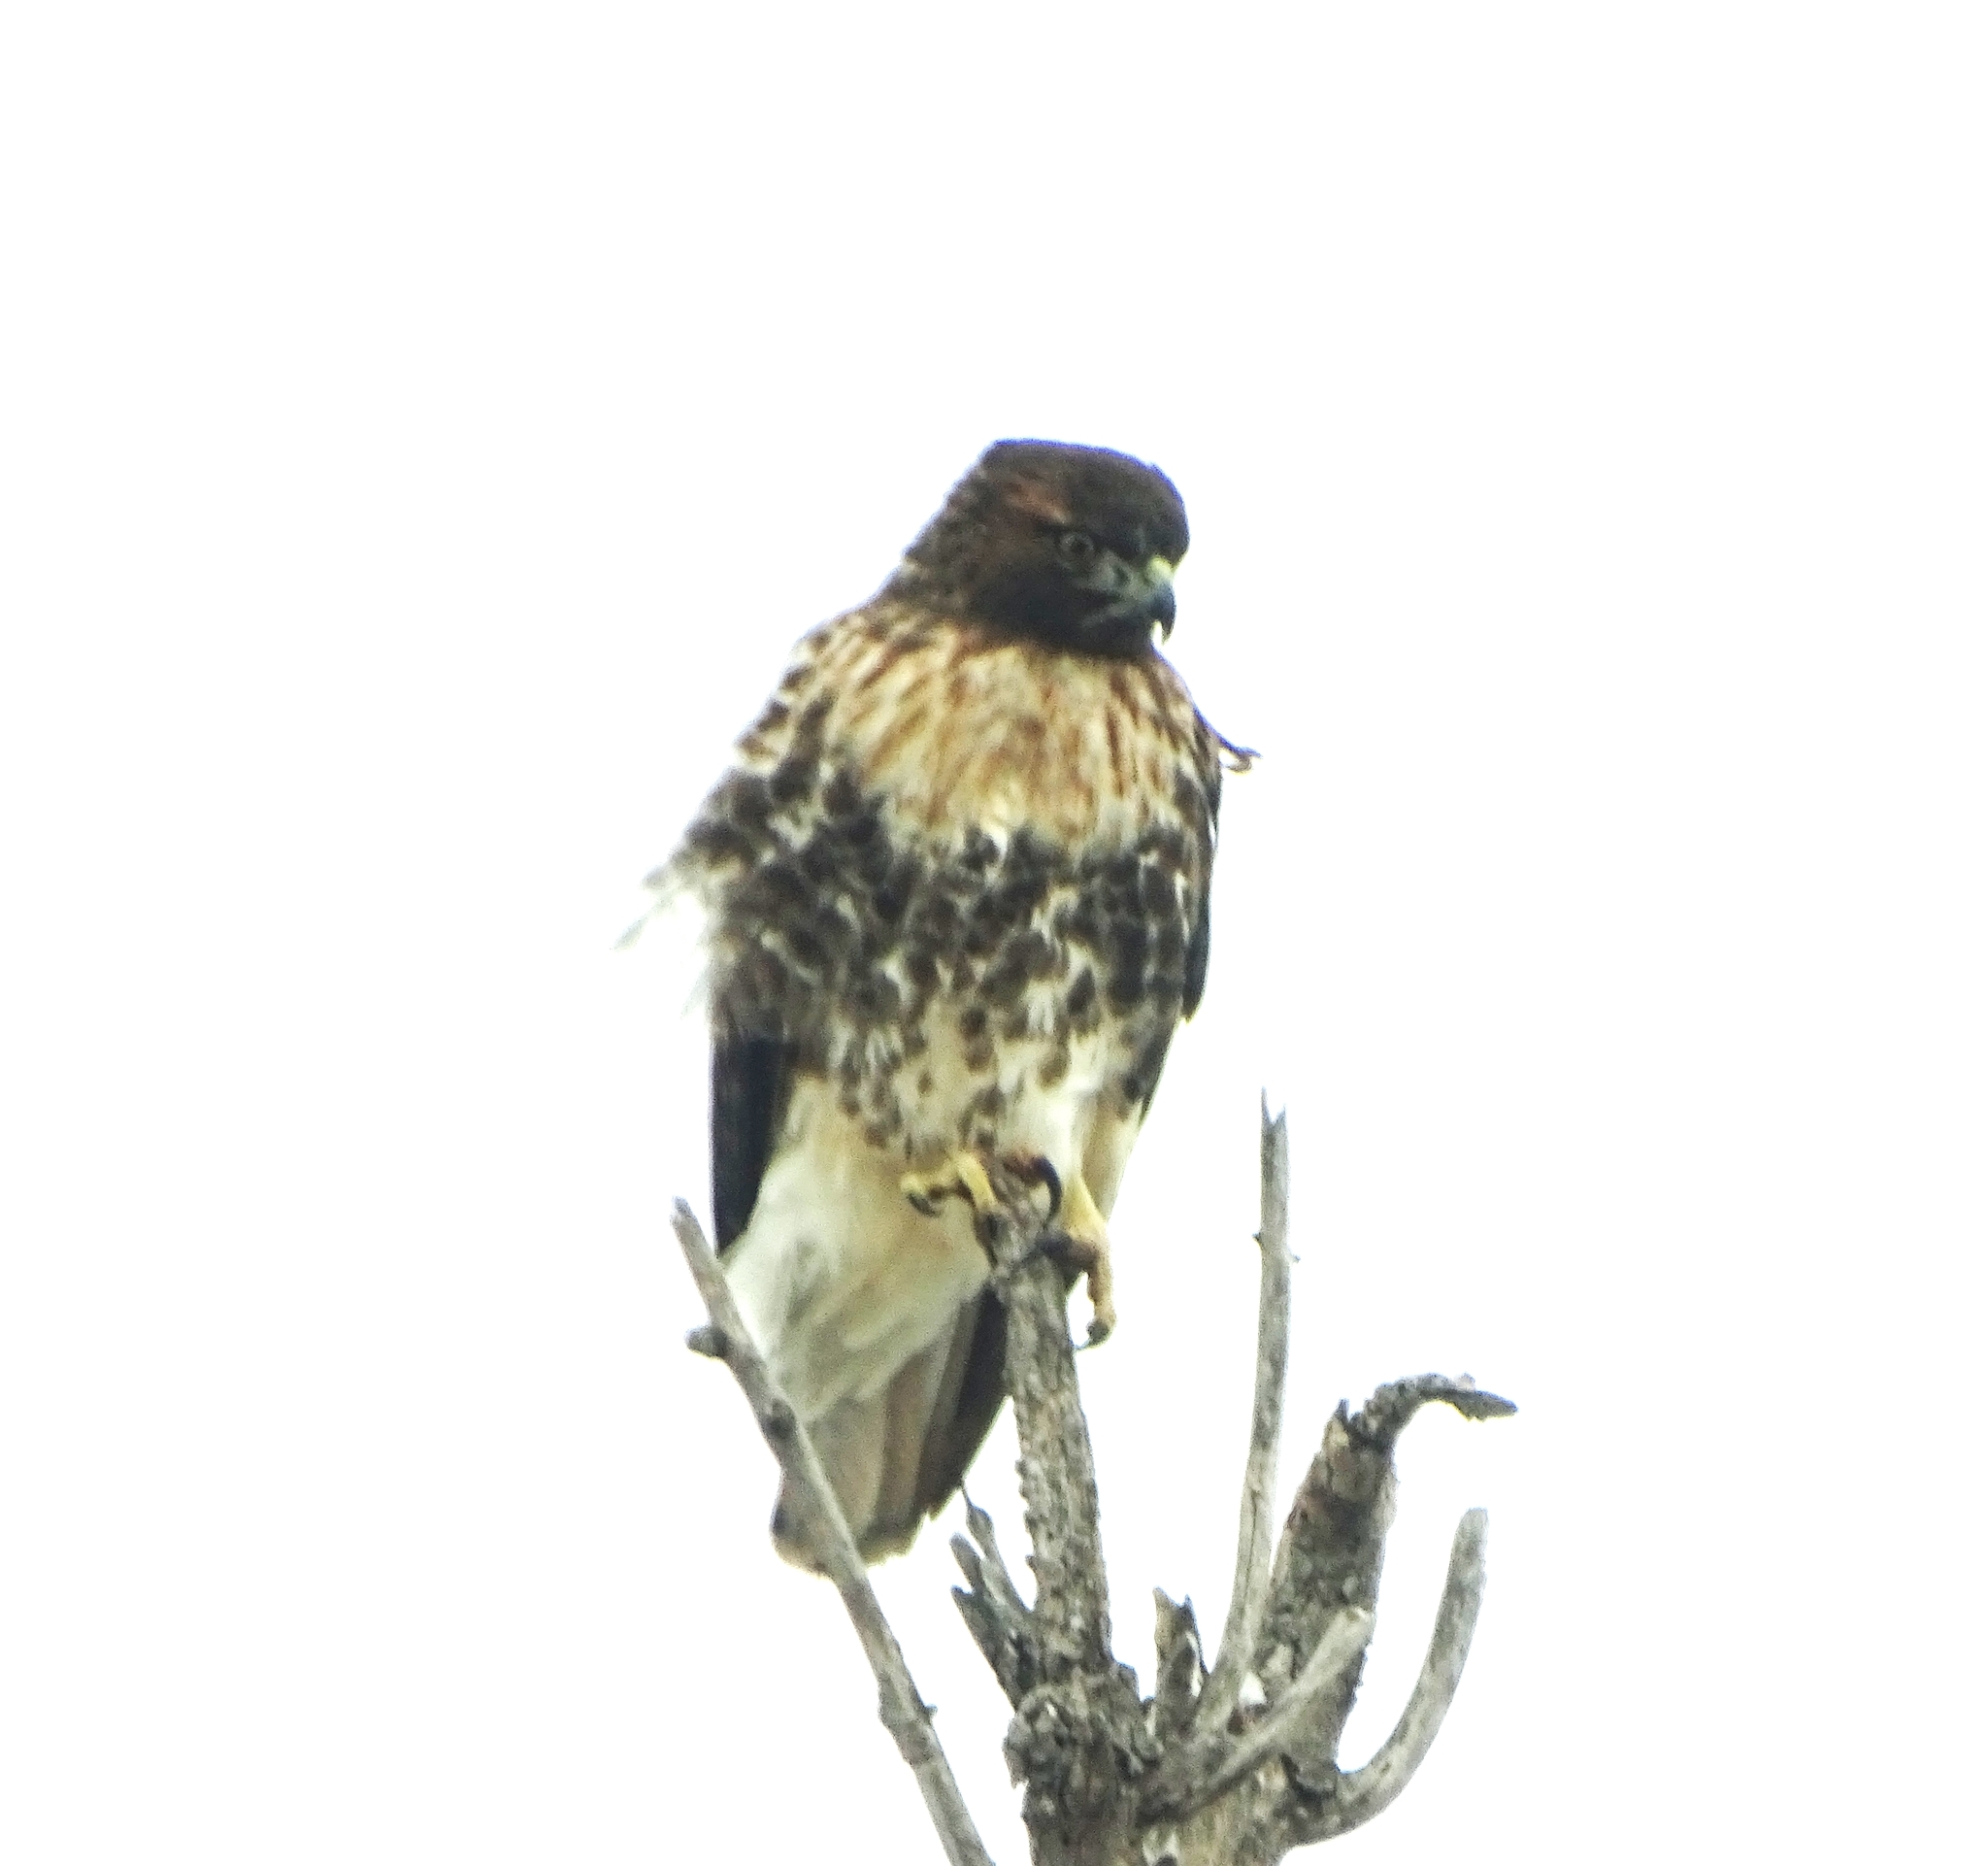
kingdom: Animalia
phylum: Chordata
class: Aves
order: Accipitriformes
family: Accipitridae
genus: Buteo
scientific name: Buteo jamaicensis
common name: Red-tailed hawk
